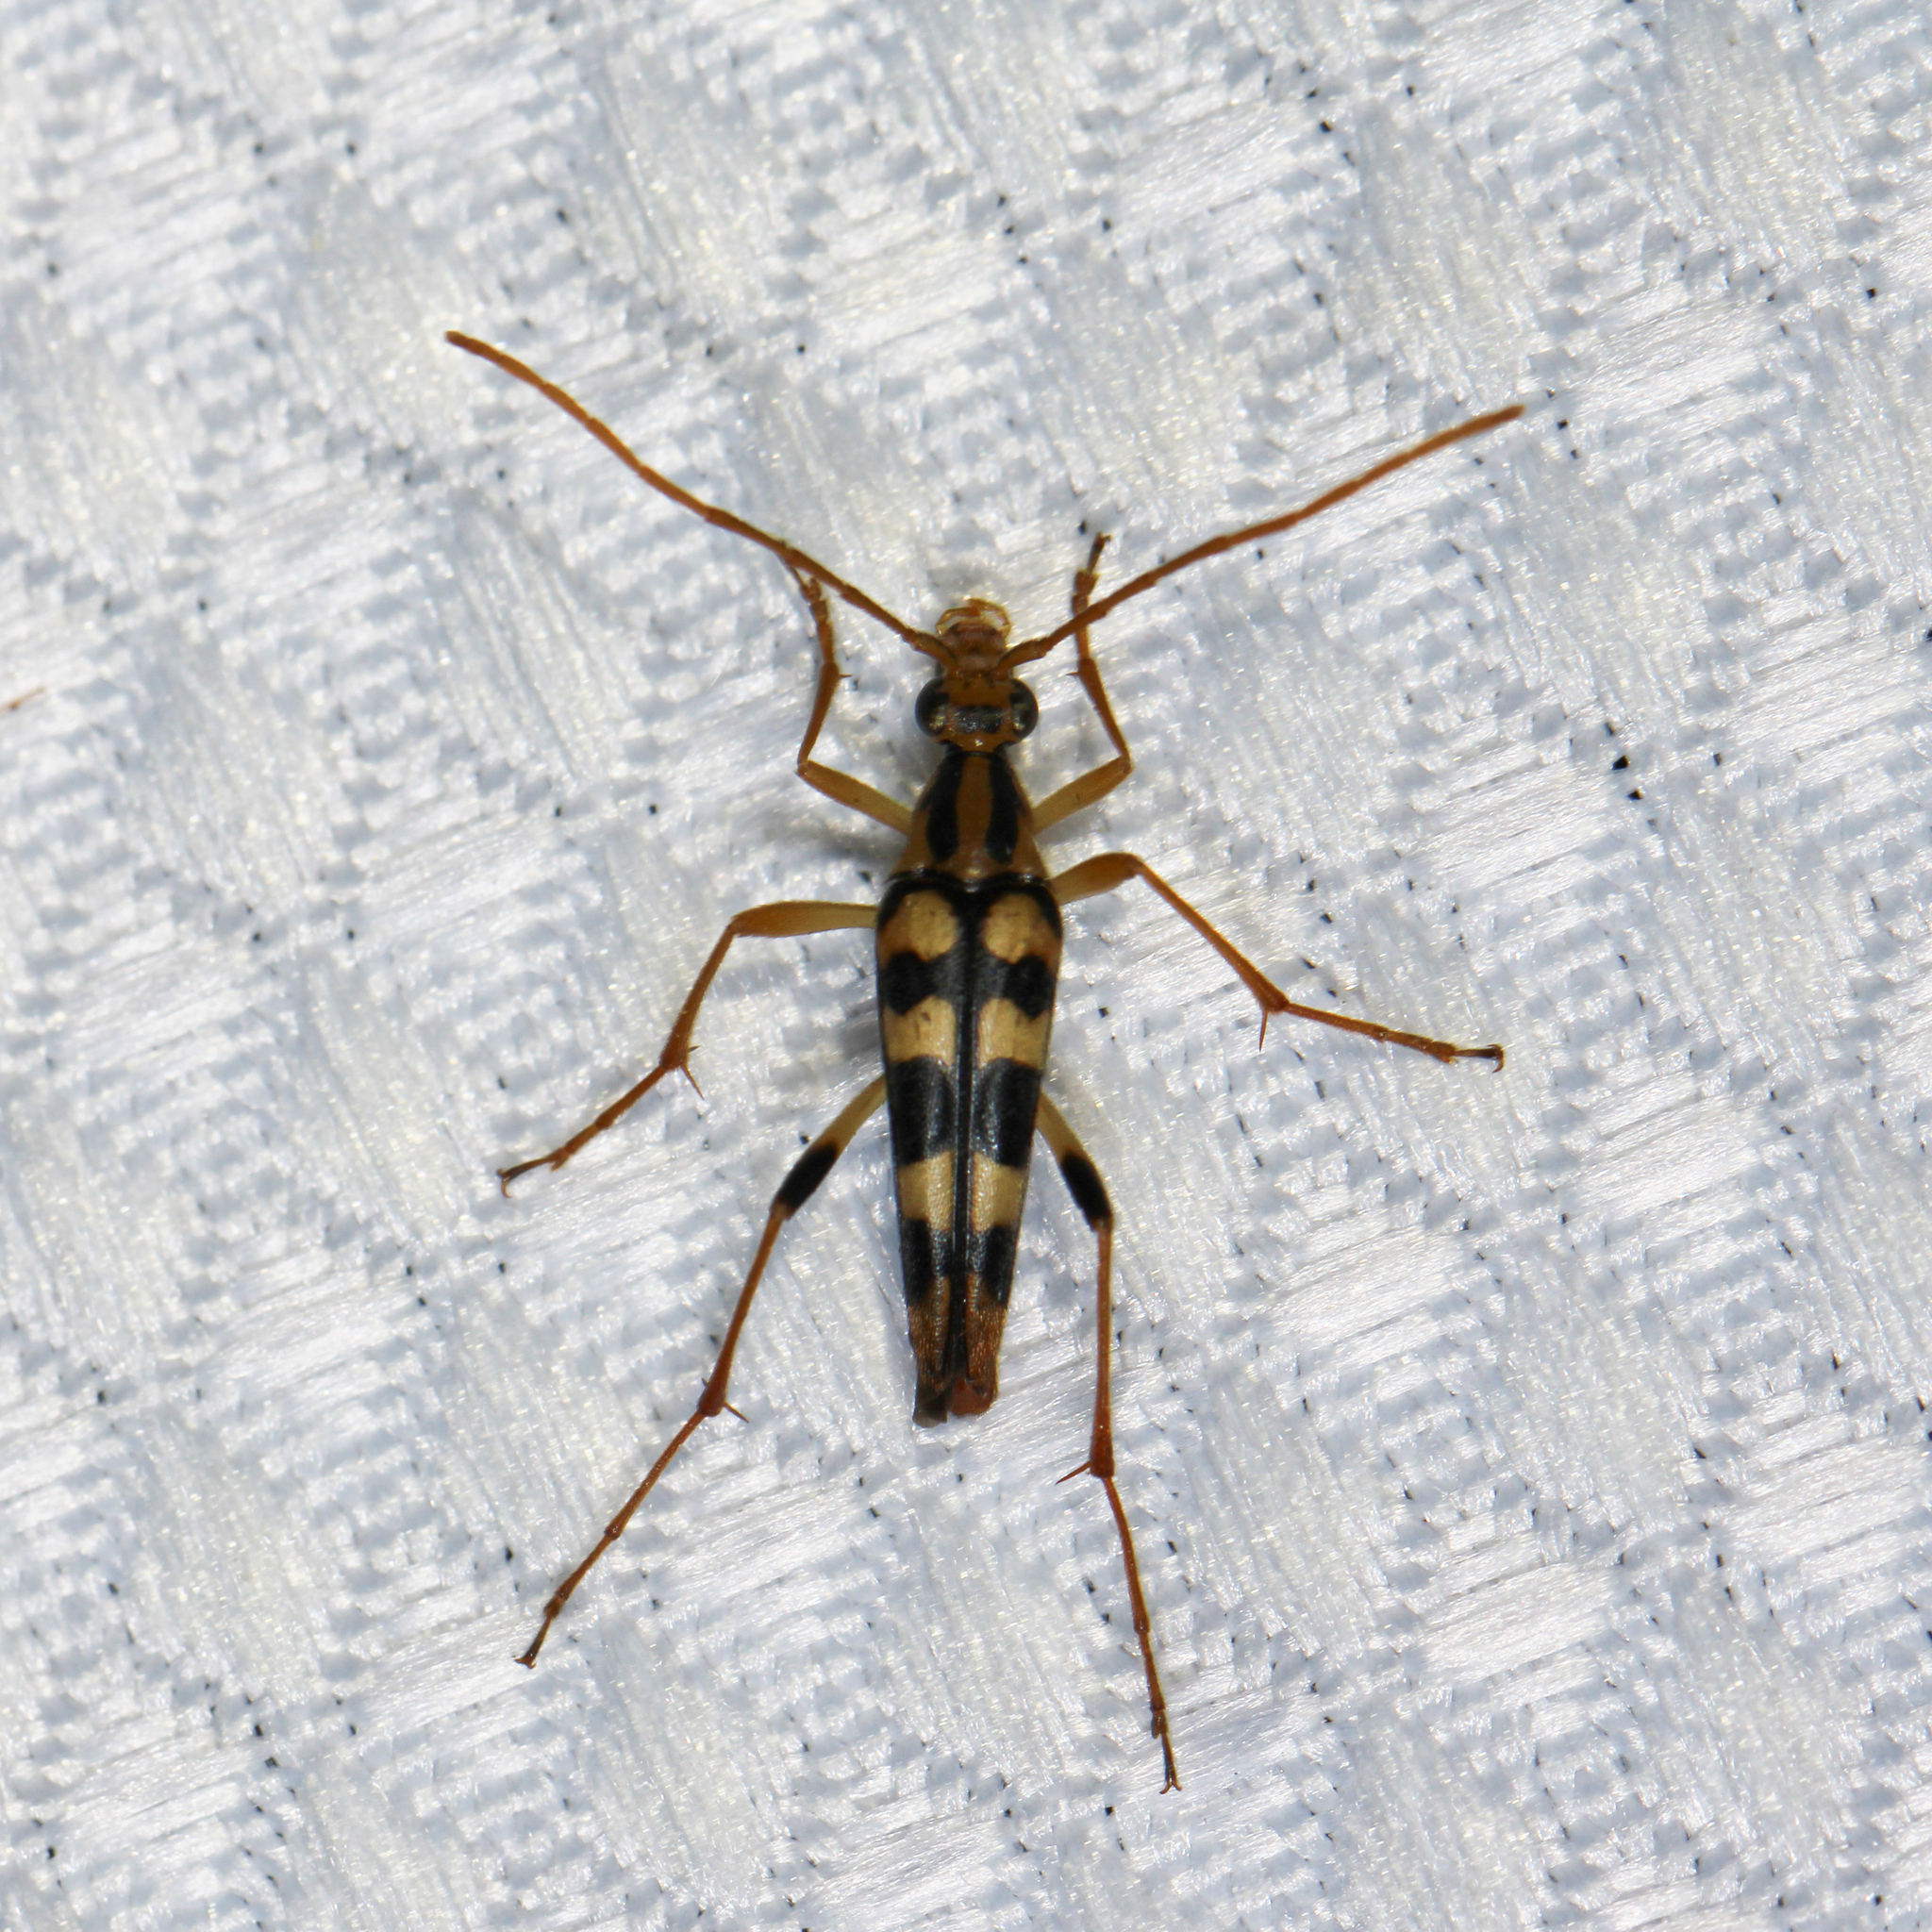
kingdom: Animalia
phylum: Arthropoda
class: Insecta
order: Coleoptera
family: Cerambycidae
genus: Strangalia
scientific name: Strangalia luteicornis
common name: Yellow-horned flower longhorn beetle
